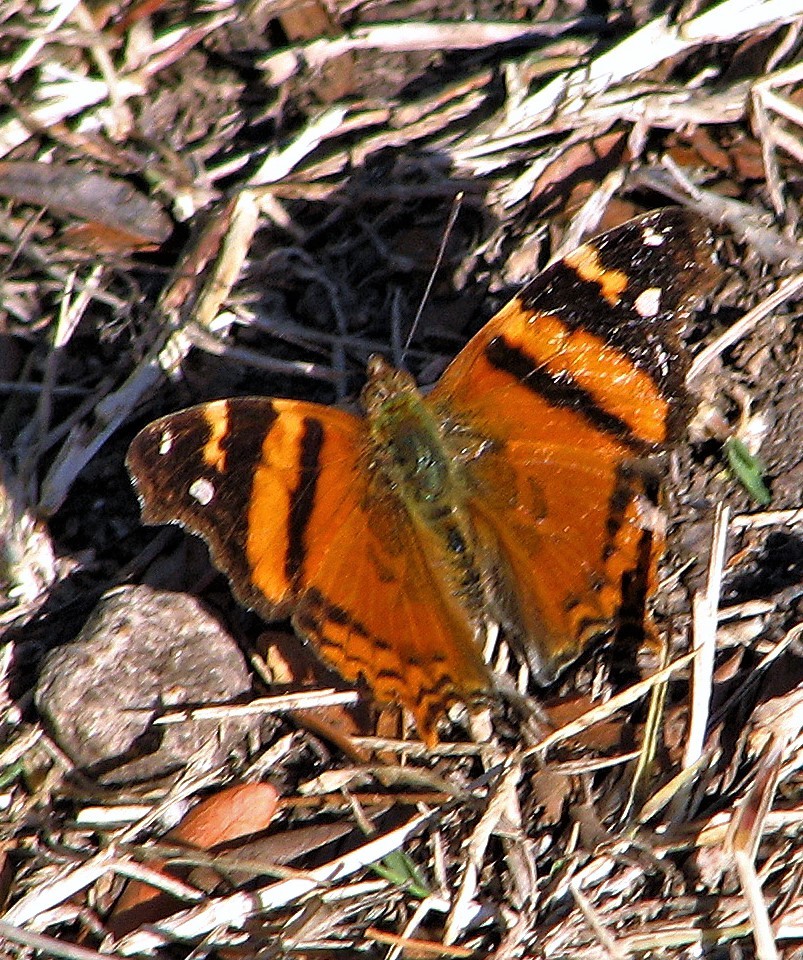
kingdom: Animalia
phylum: Arthropoda
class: Insecta
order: Lepidoptera
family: Nymphalidae
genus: Hypanartia
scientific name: Hypanartia bella
